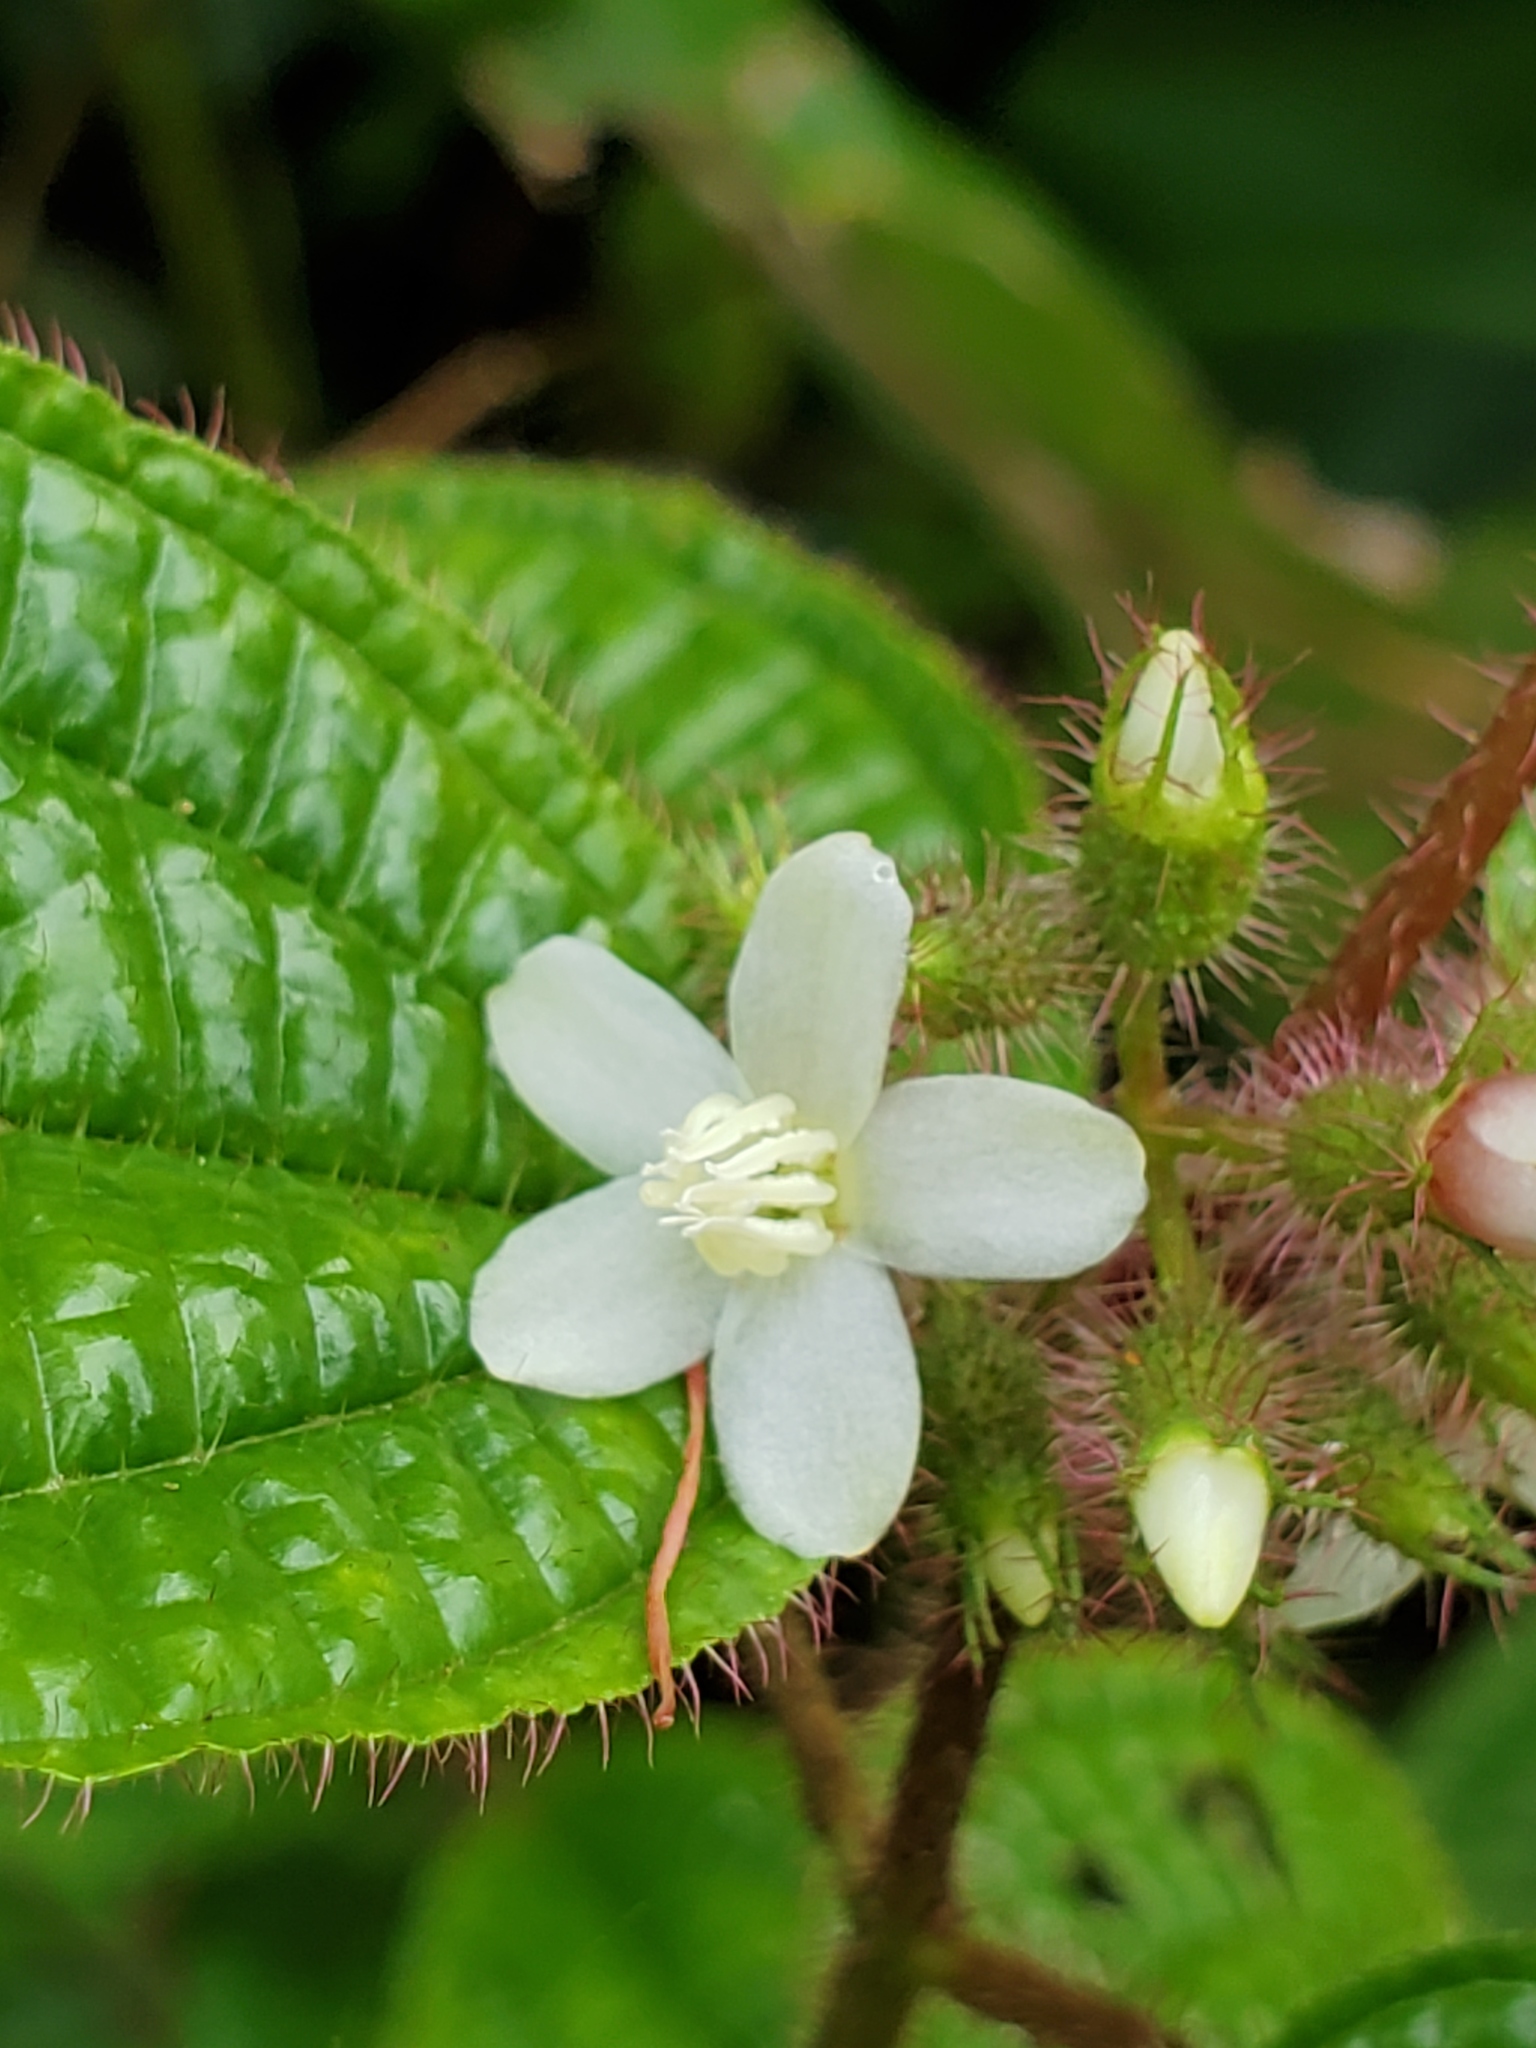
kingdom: Plantae
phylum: Tracheophyta
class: Magnoliopsida
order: Myrtales
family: Melastomataceae
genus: Miconia
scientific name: Miconia crenata
